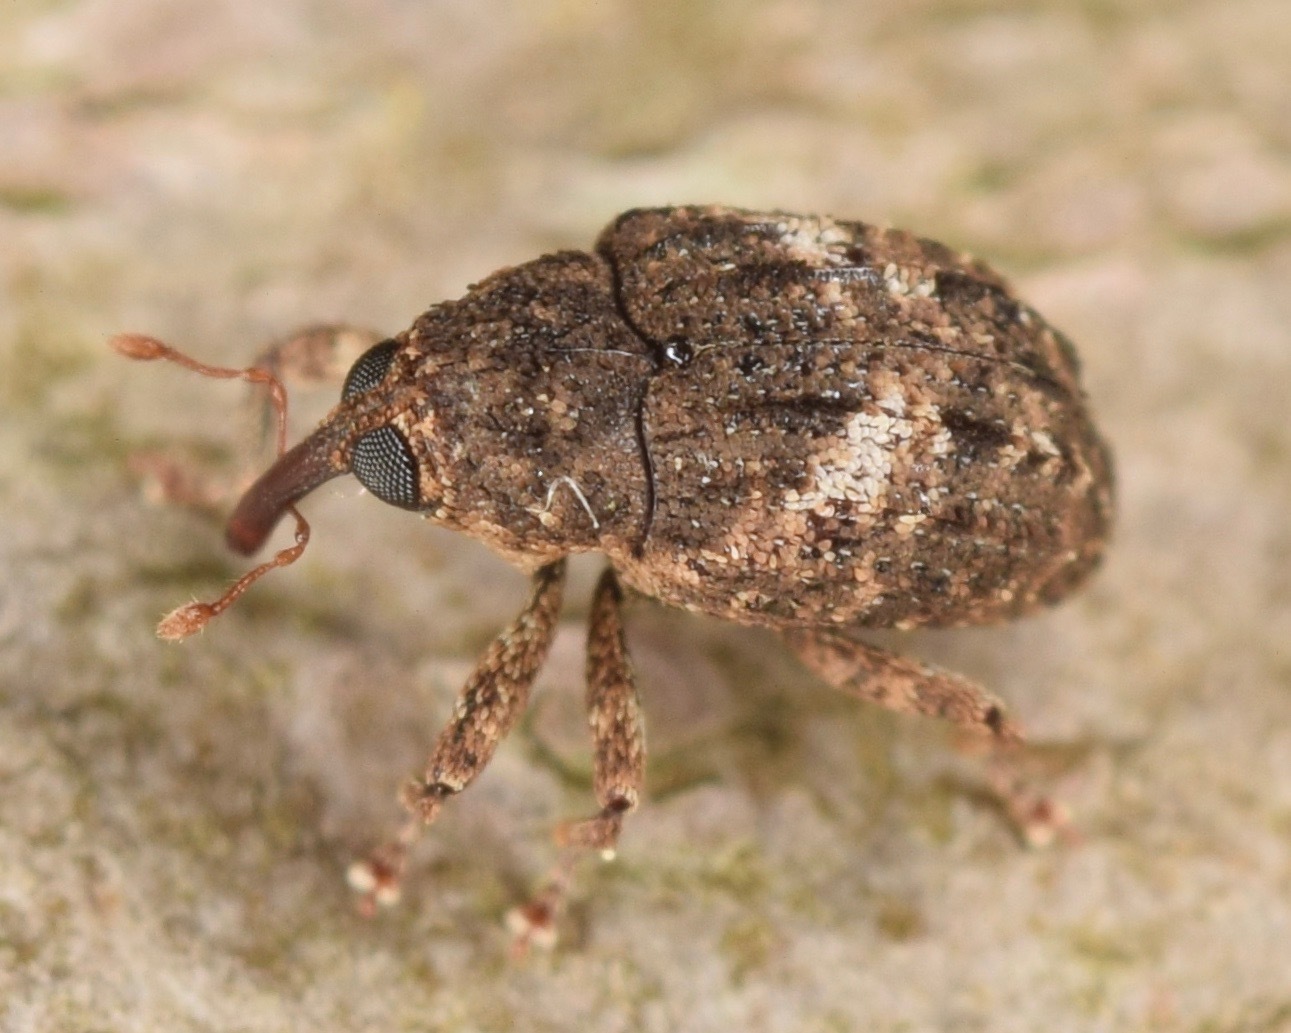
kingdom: Animalia
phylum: Arthropoda
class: Insecta
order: Coleoptera
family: Curculionidae
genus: Eubulus
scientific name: Eubulus
